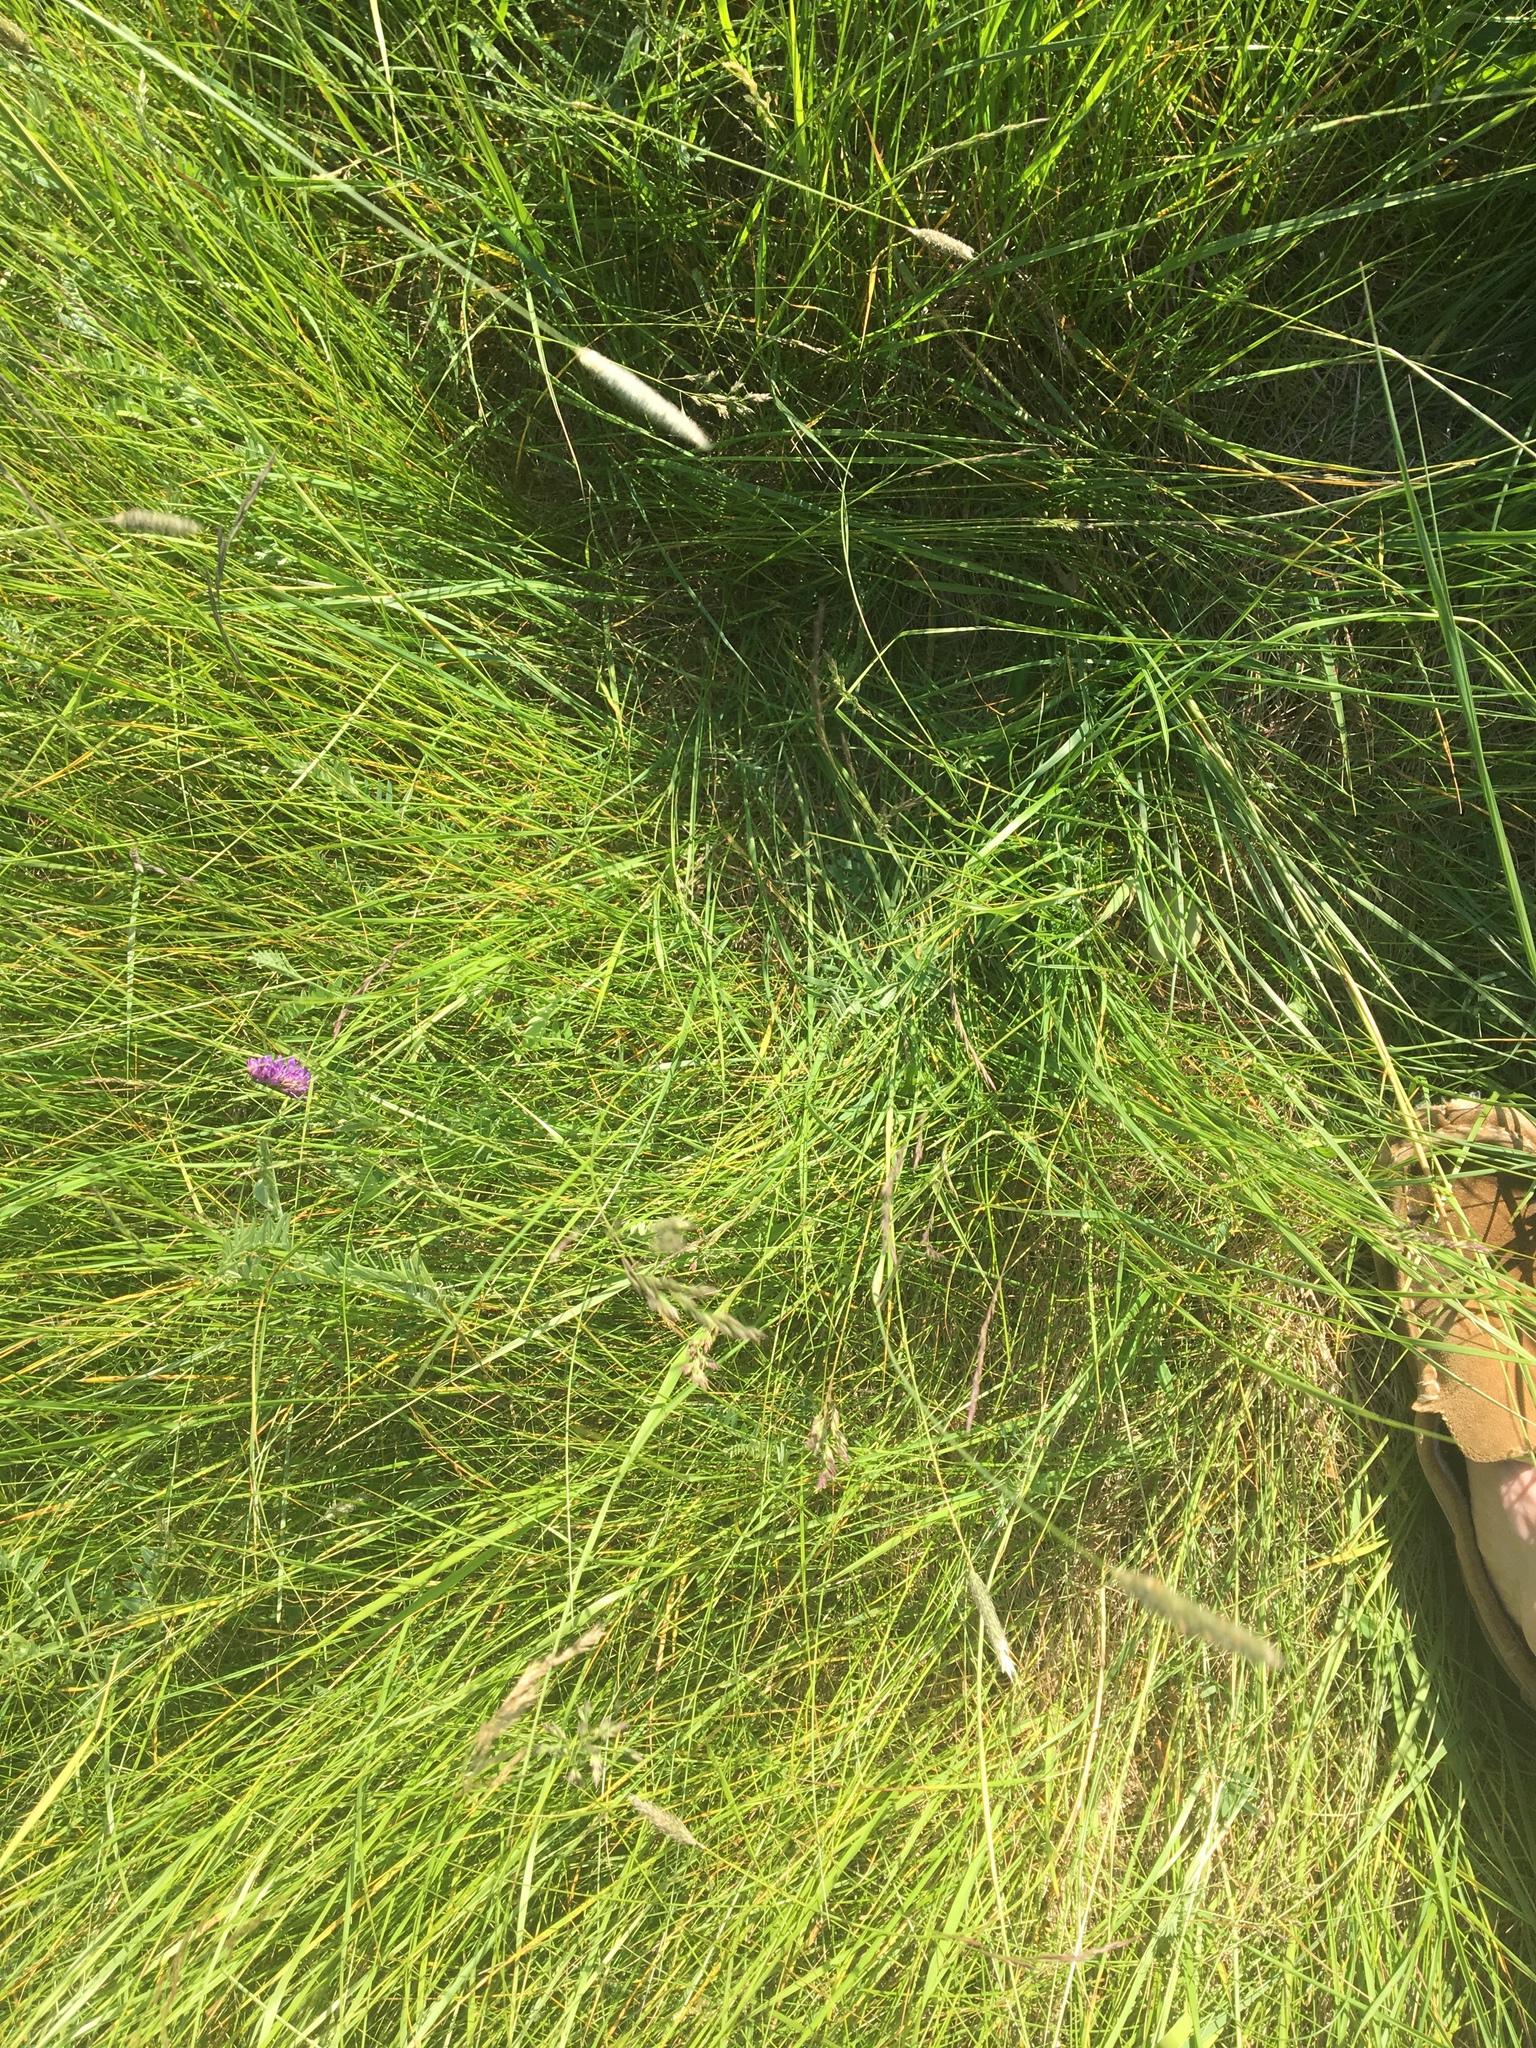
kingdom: Plantae
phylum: Tracheophyta
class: Magnoliopsida
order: Fabales
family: Fabaceae
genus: Vicia
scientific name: Vicia cracca
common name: Bird vetch
